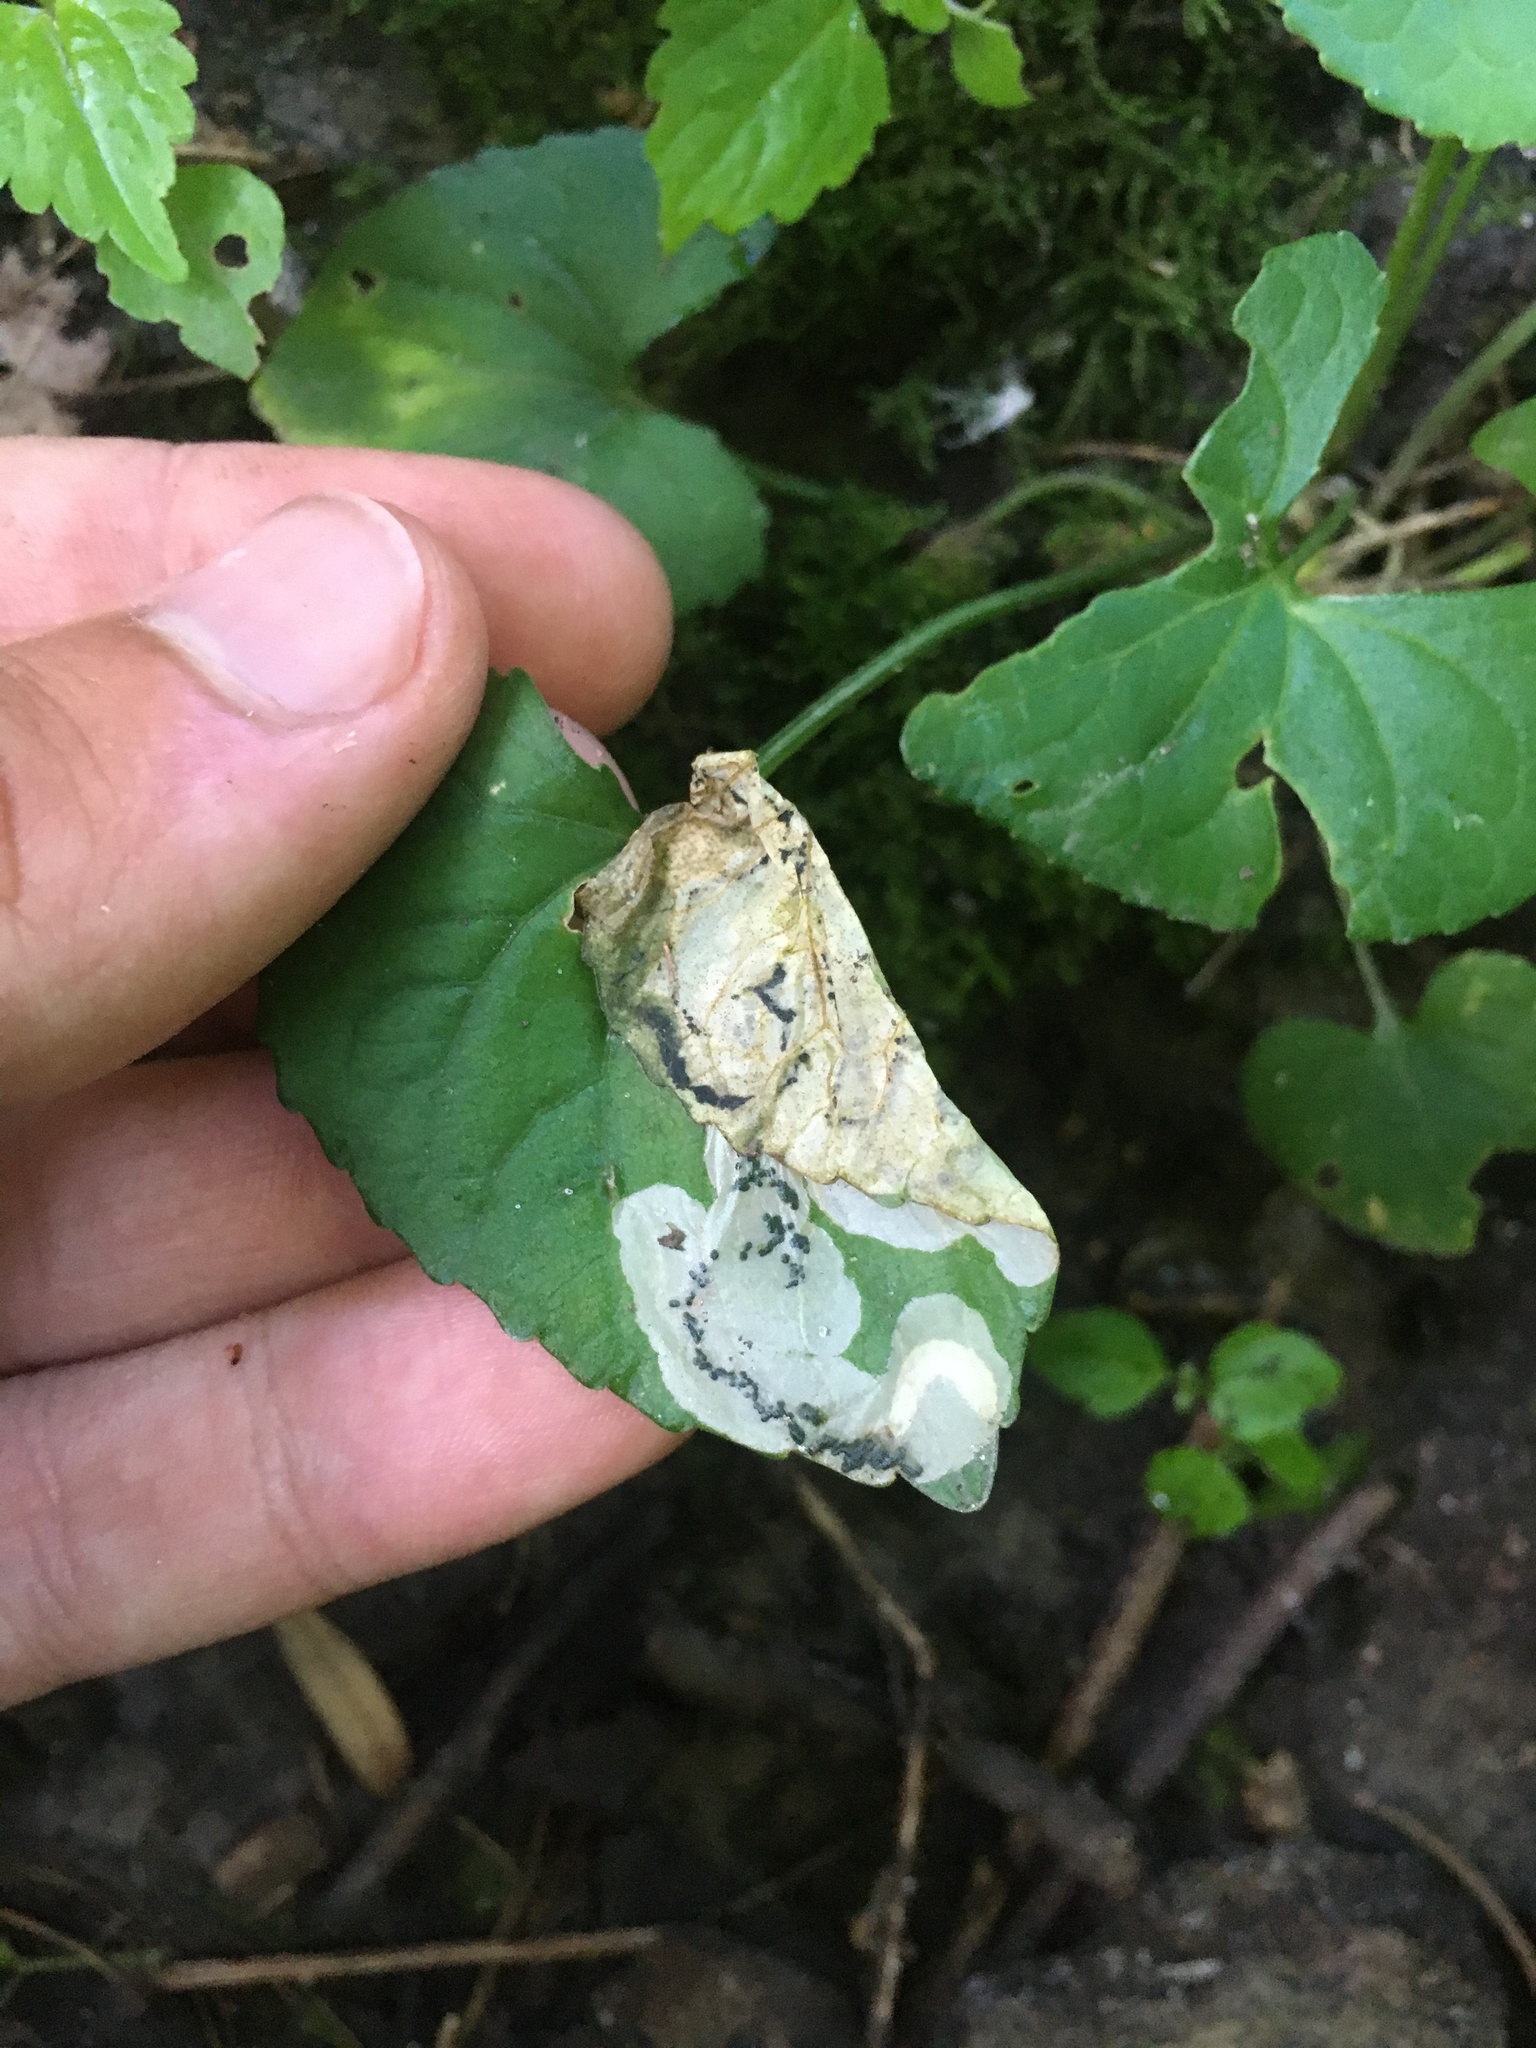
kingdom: Animalia
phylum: Arthropoda
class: Insecta
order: Hymenoptera
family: Tenthredinidae
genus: Nefusa
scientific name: Nefusa ambigua
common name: Violet leafmining sawfly
